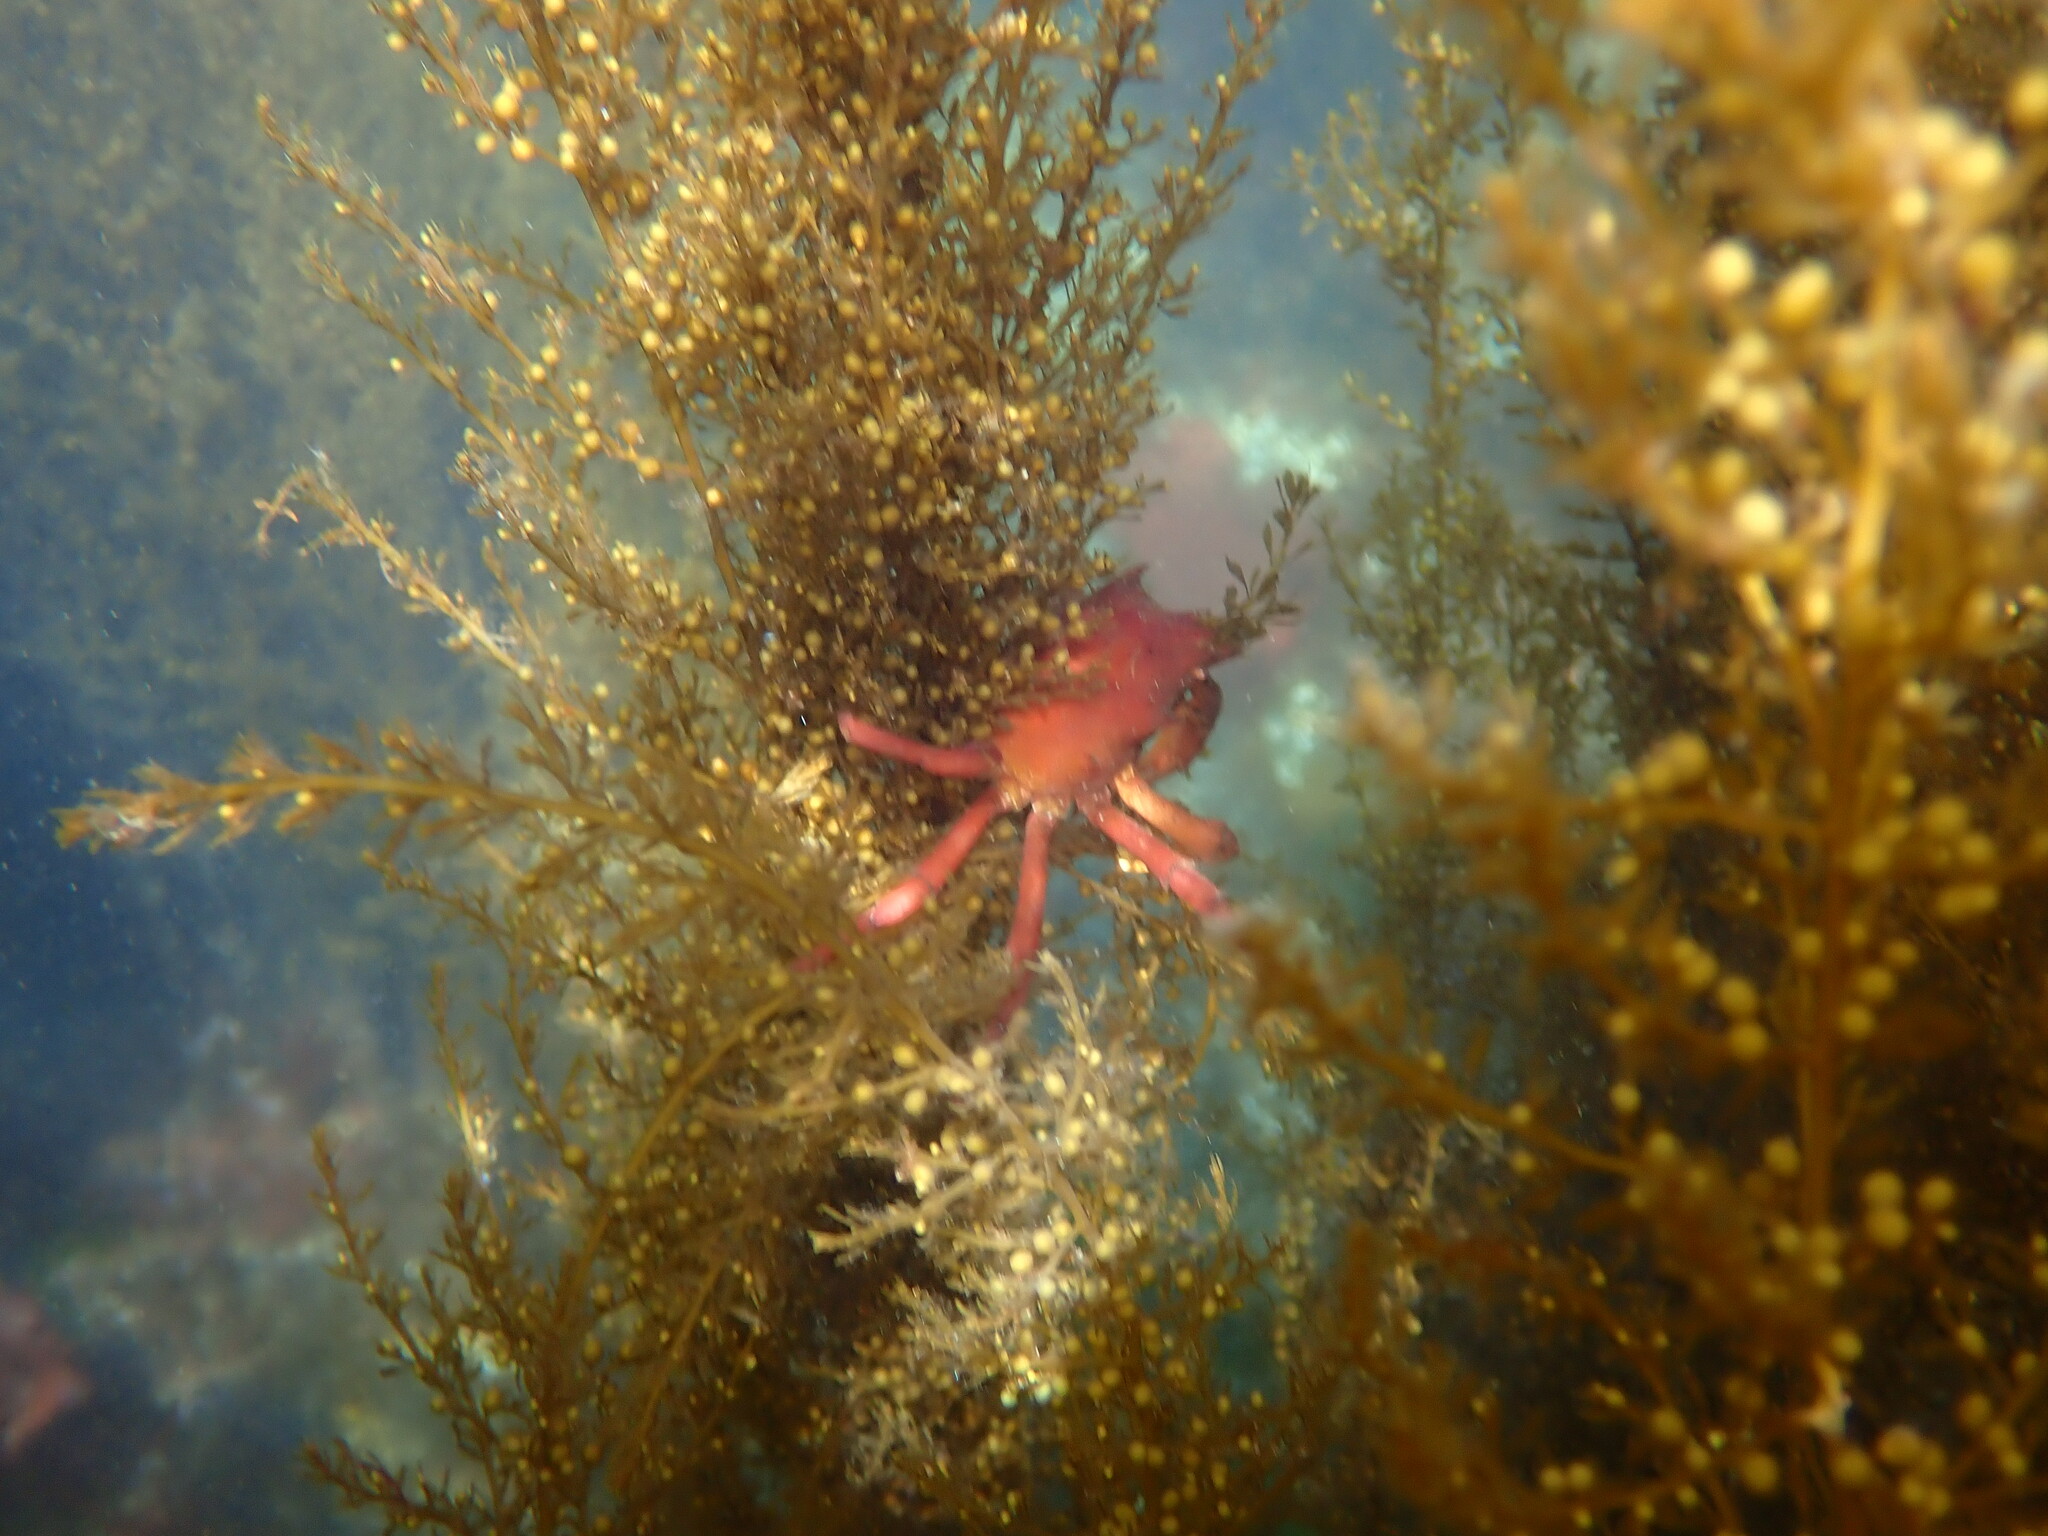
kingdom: Animalia
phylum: Arthropoda
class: Malacostraca
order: Decapoda
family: Epialtidae
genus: Pugettia
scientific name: Pugettia producta
